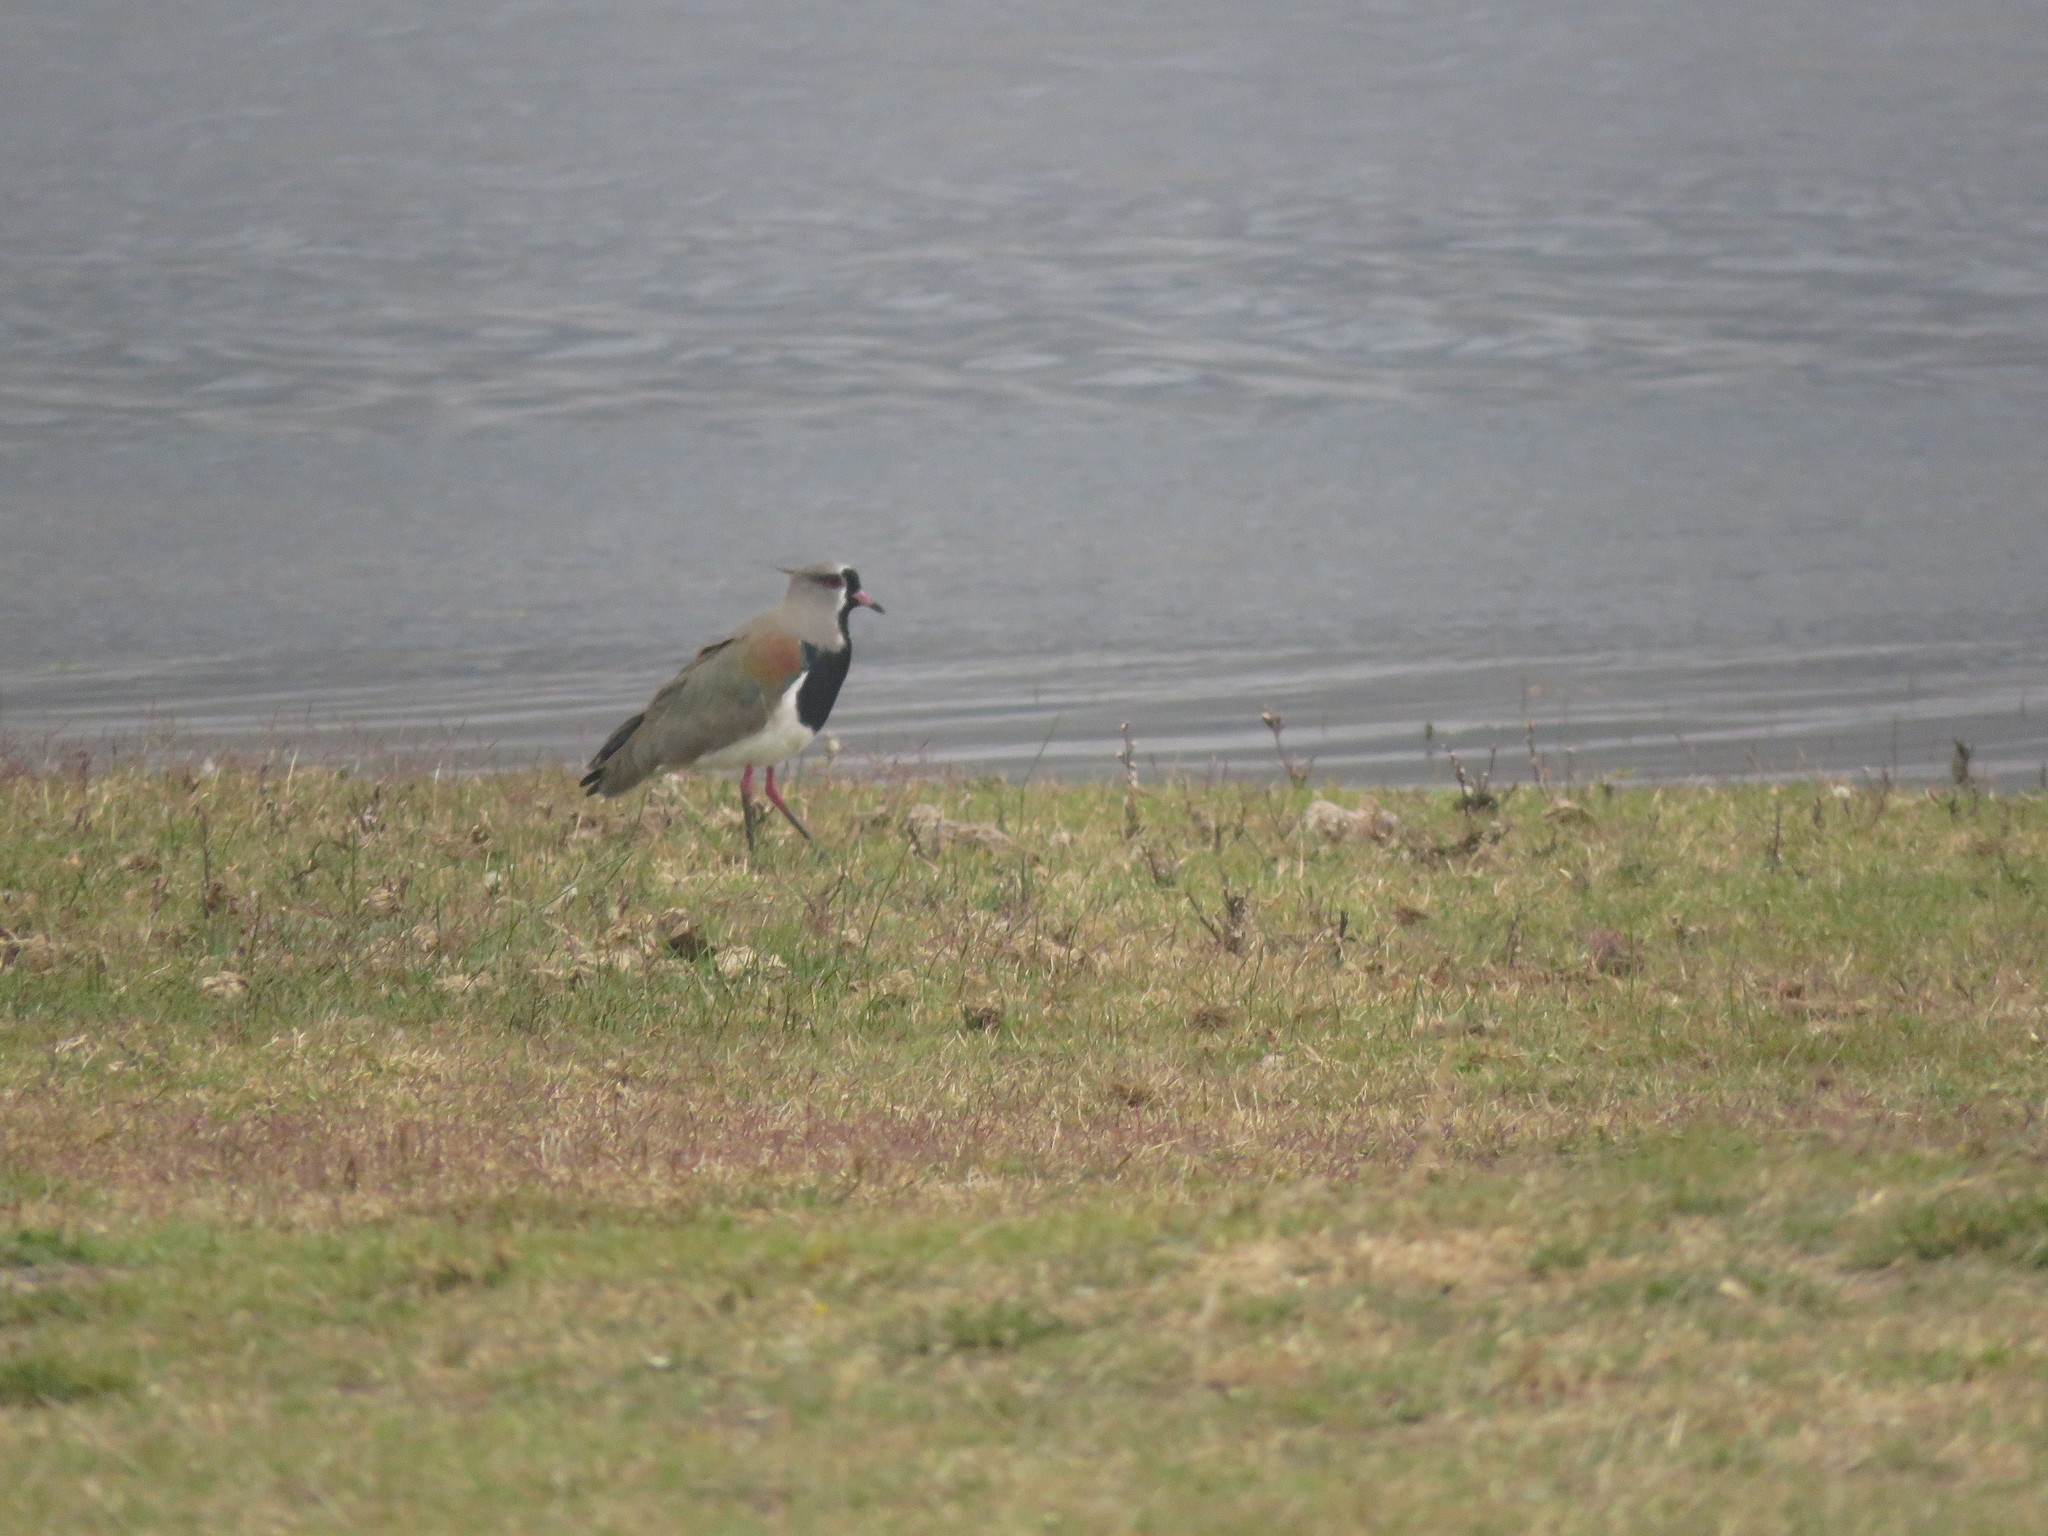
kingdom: Animalia
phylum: Chordata
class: Aves
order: Charadriiformes
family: Charadriidae
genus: Vanellus
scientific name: Vanellus chilensis
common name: Southern lapwing
